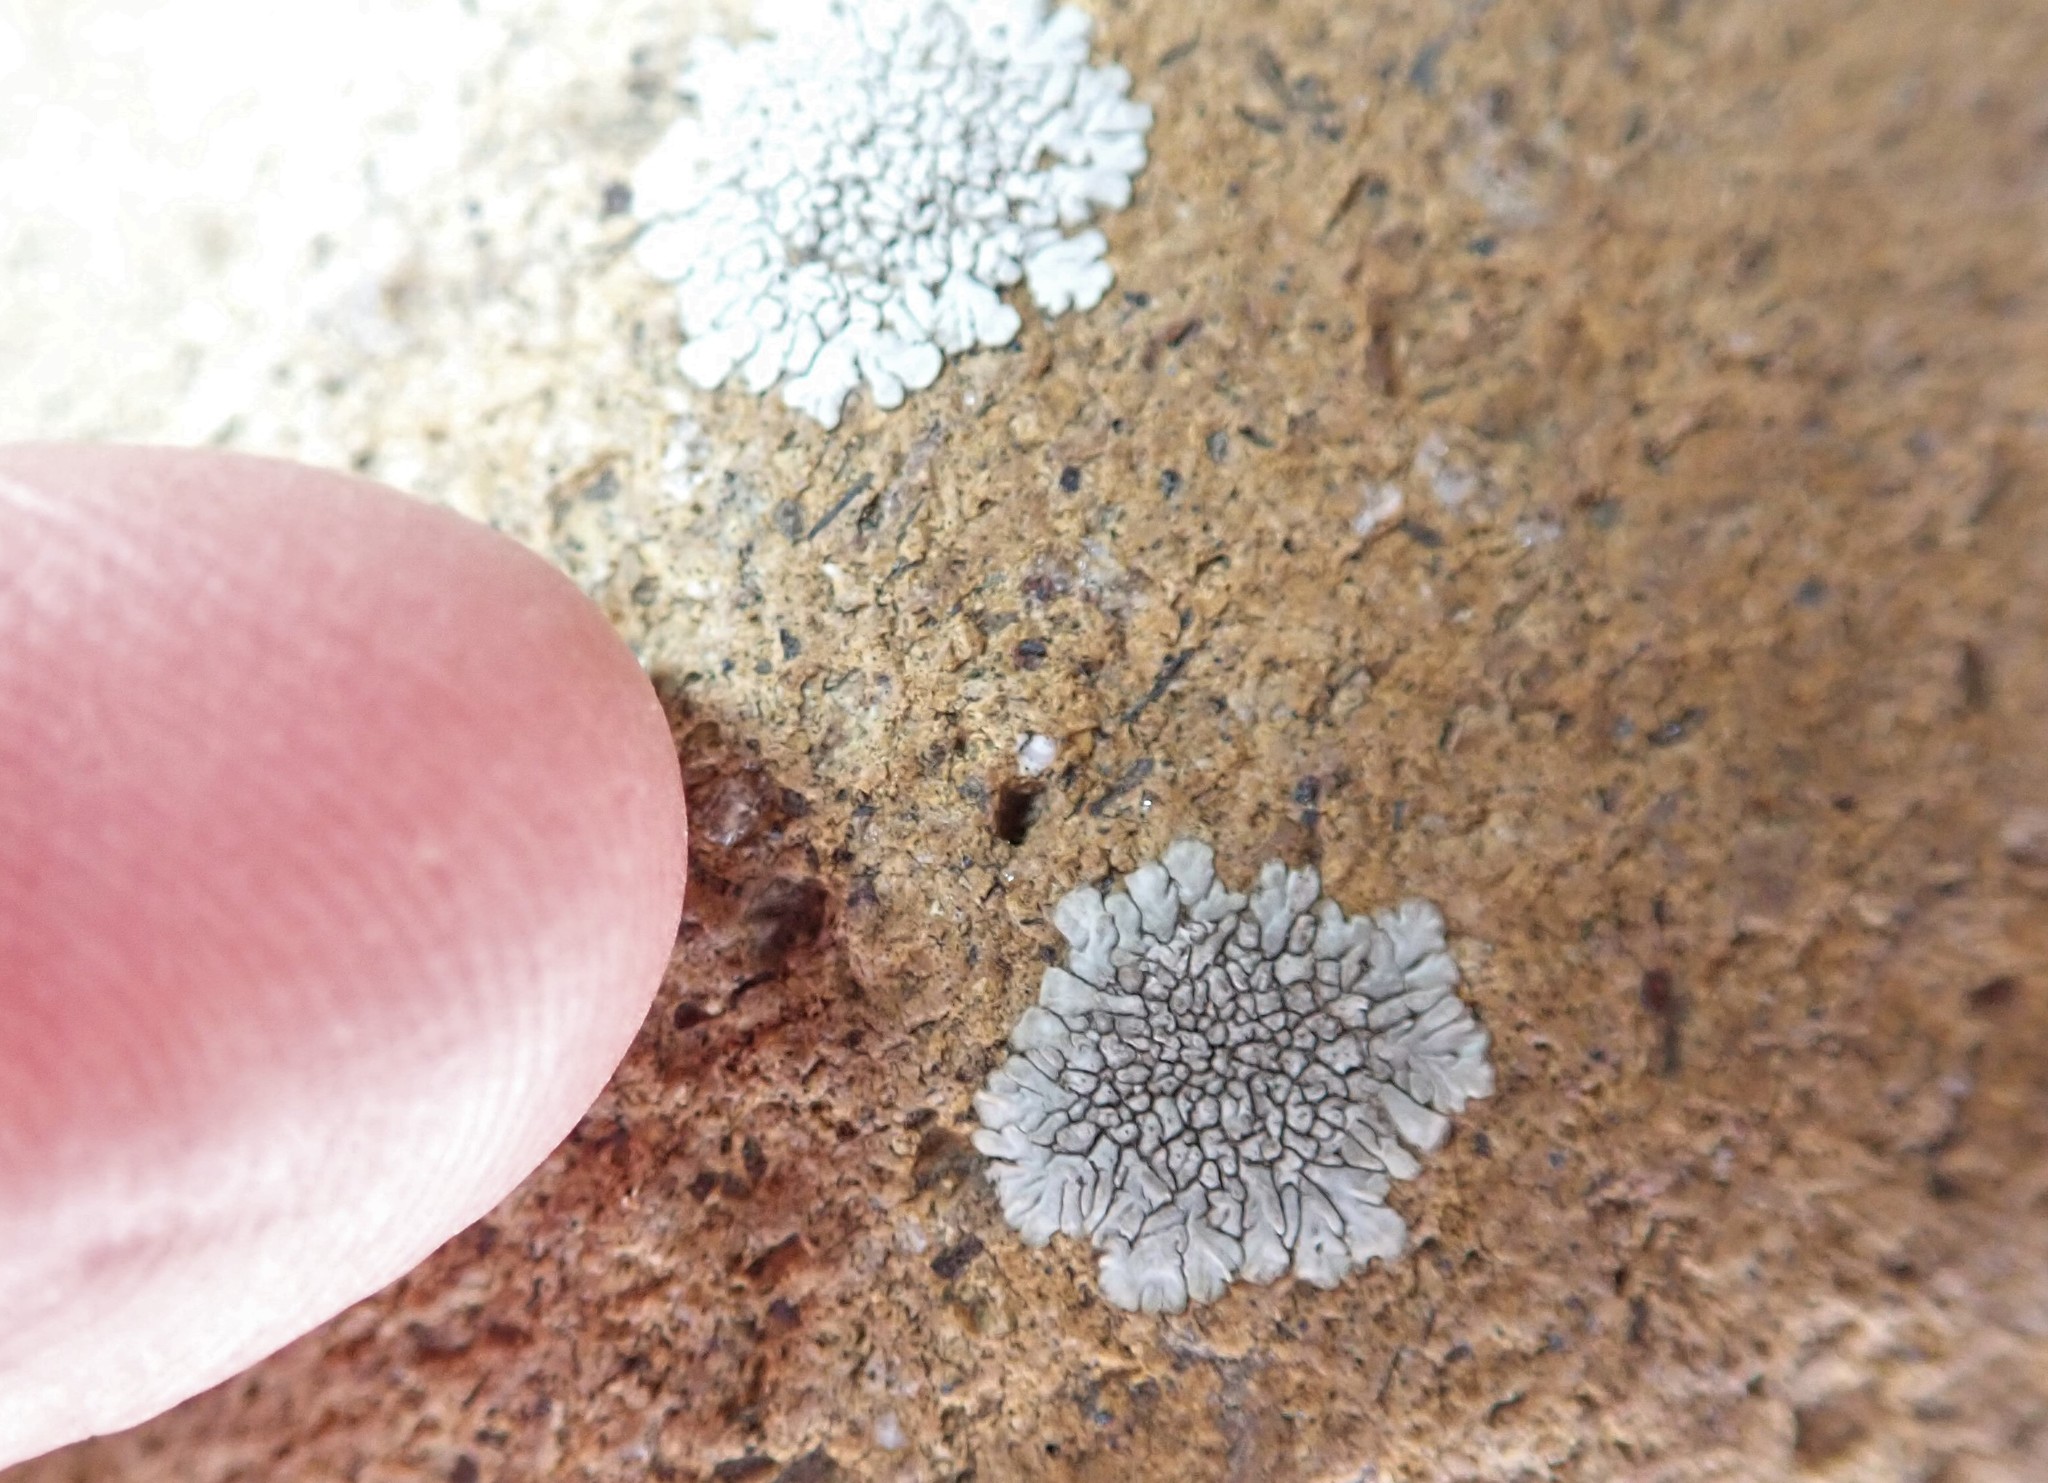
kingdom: Fungi
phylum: Ascomycota
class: Lecanoromycetes
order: Caliciales
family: Caliciaceae
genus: Dimelaena
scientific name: Dimelaena radiata
